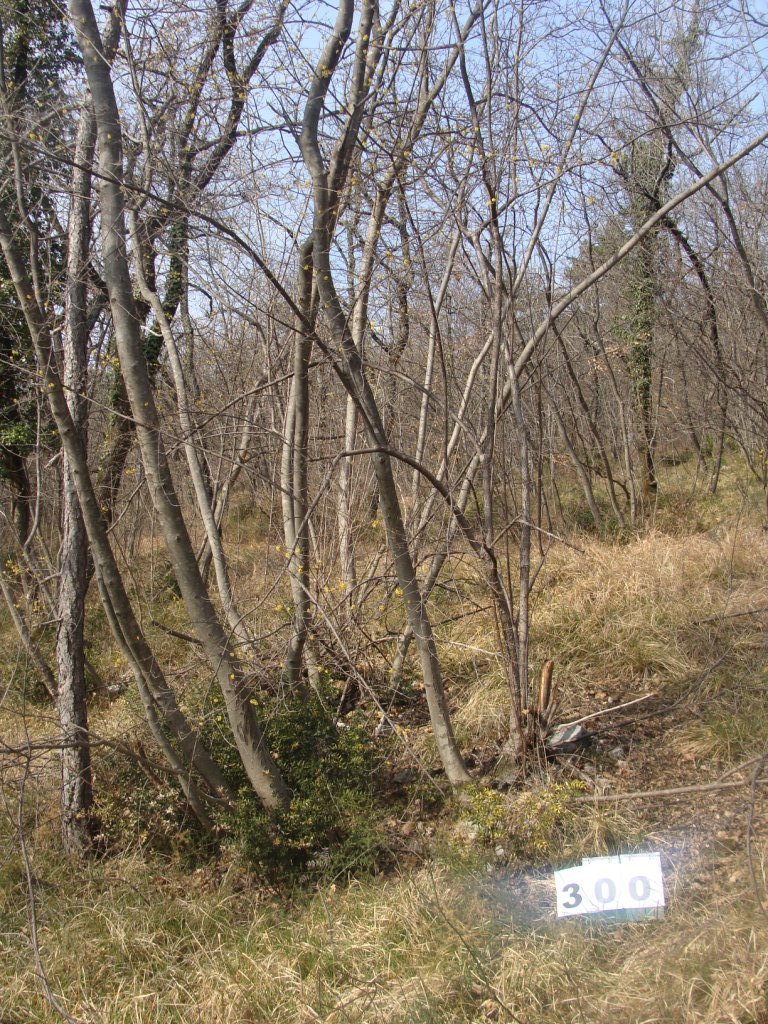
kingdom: Plantae
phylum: Tracheophyta
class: Magnoliopsida
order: Cornales
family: Cornaceae
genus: Cornus
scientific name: Cornus mas
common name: Cornelian-cherry
